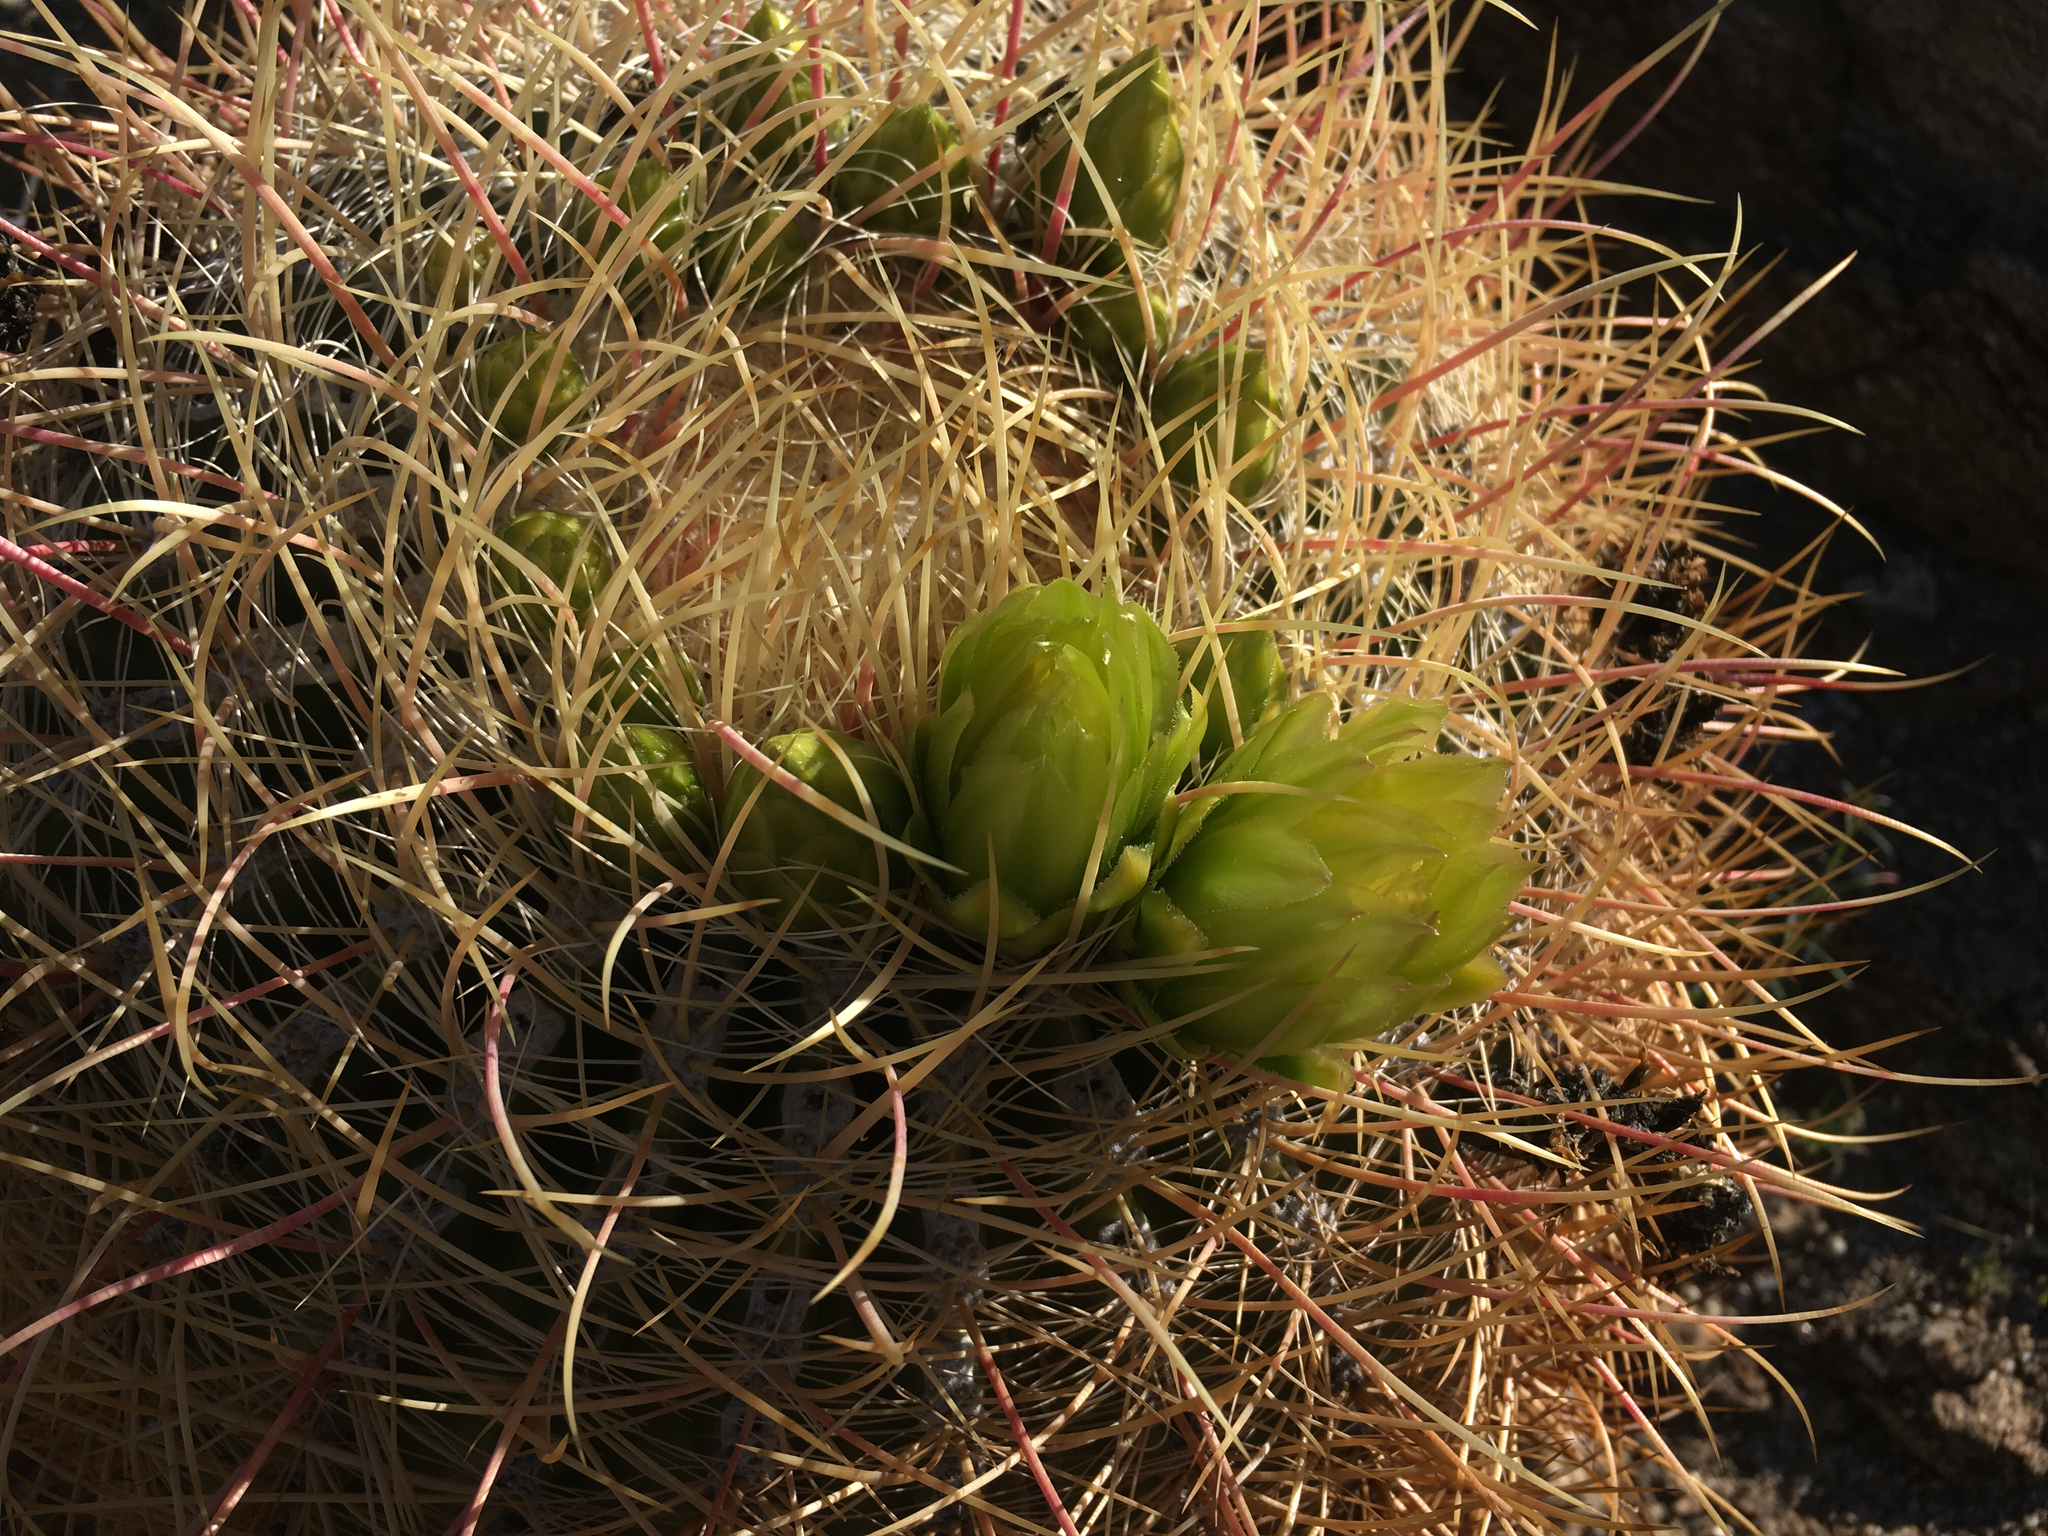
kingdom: Plantae
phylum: Tracheophyta
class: Magnoliopsida
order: Caryophyllales
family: Cactaceae
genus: Ferocactus
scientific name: Ferocactus cylindraceus
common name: California barrel cactus
